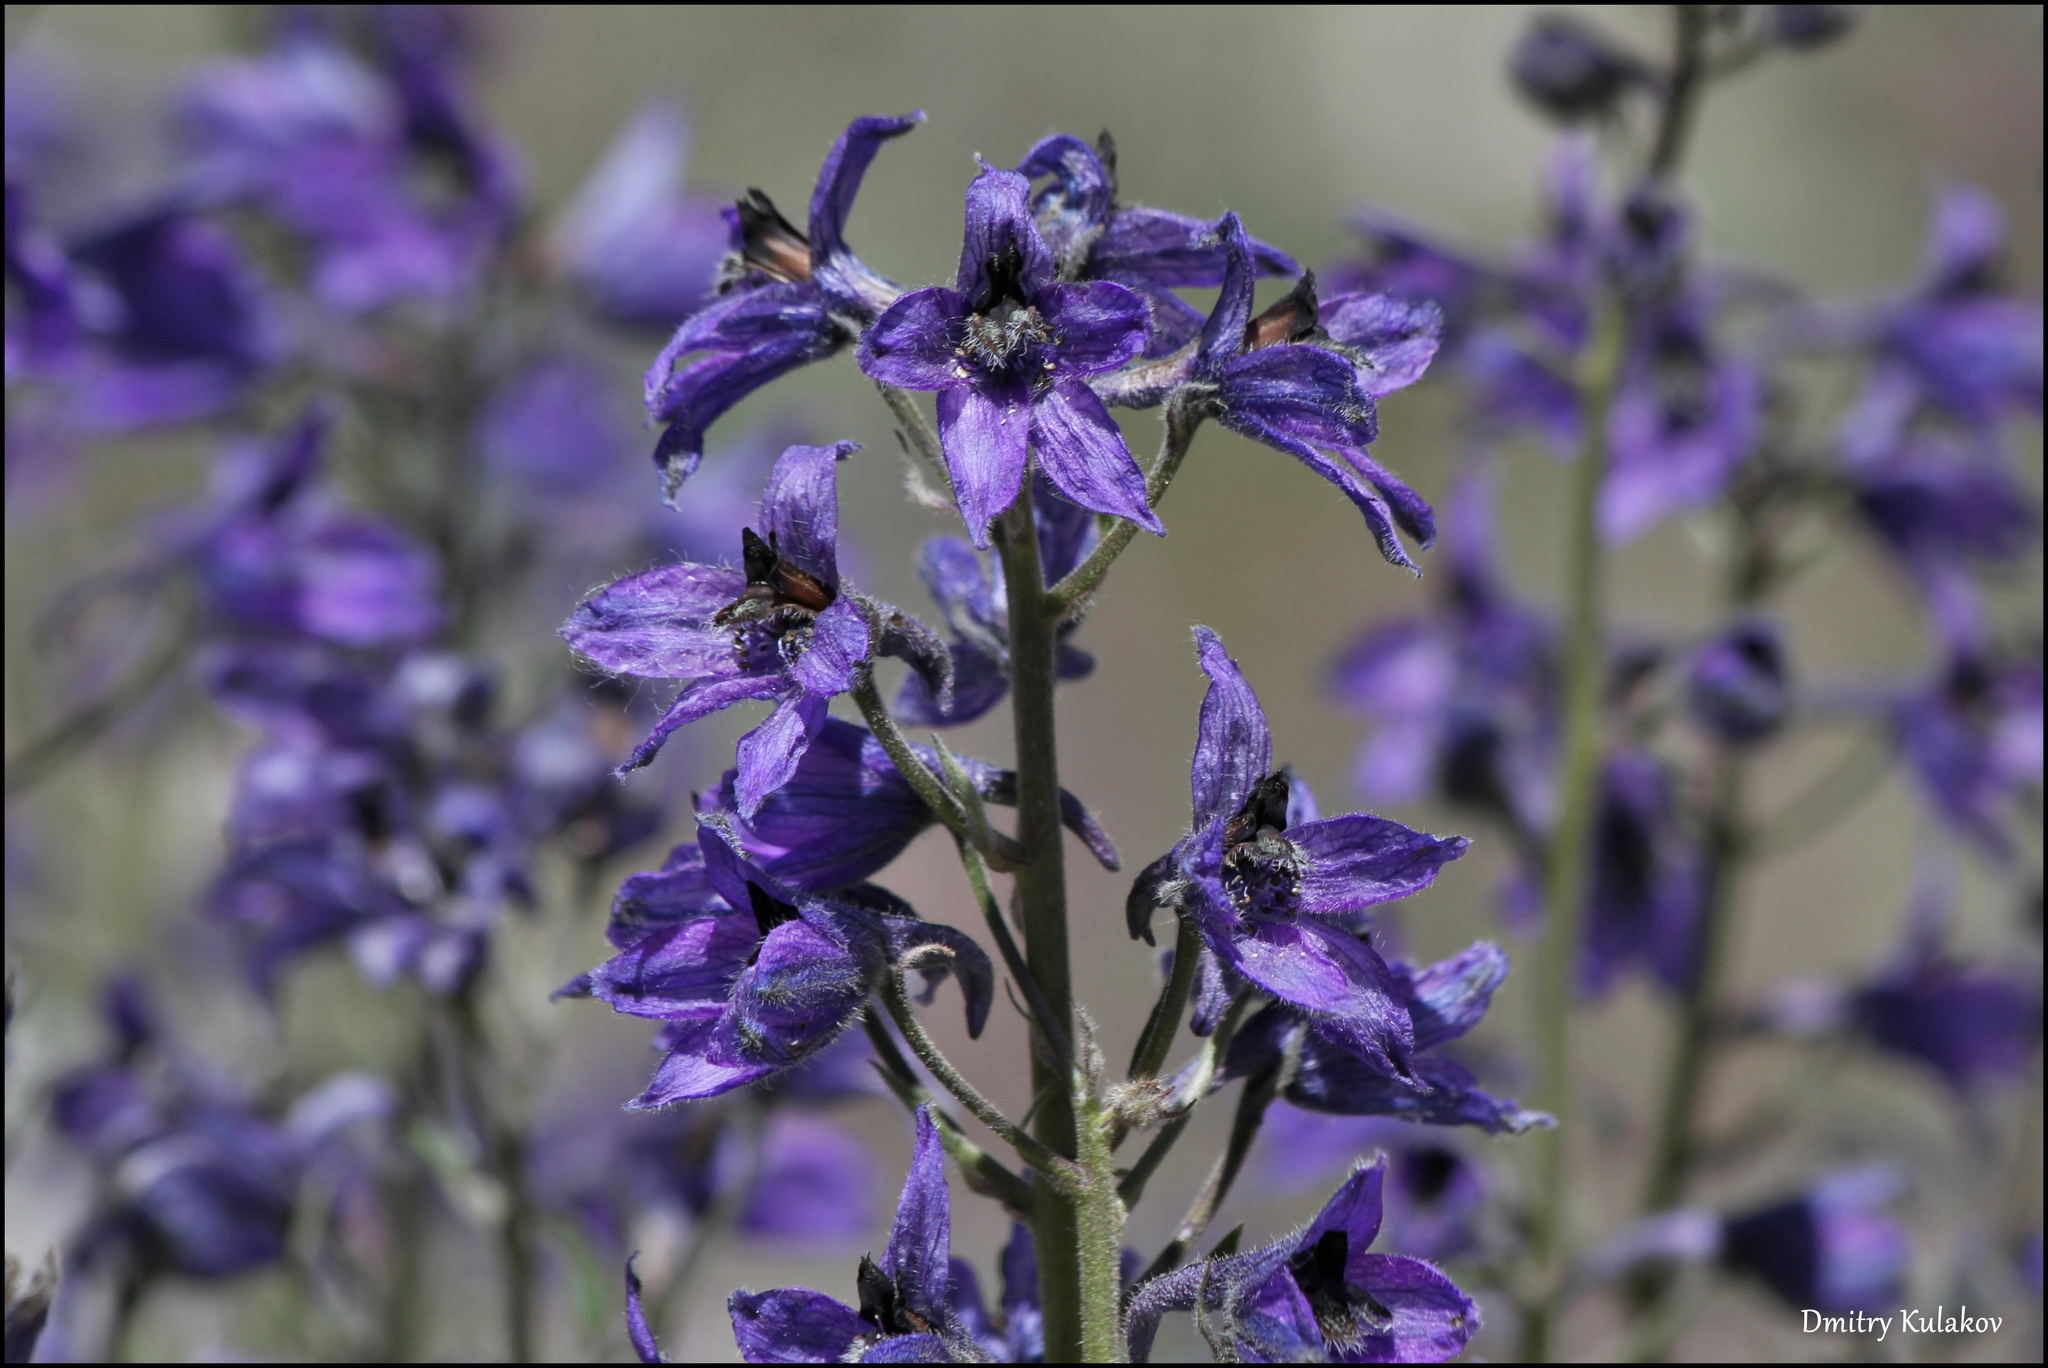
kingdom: Plantae
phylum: Tracheophyta
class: Magnoliopsida
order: Ranunculales
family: Ranunculaceae
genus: Delphinium
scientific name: Delphinium oreophilum
